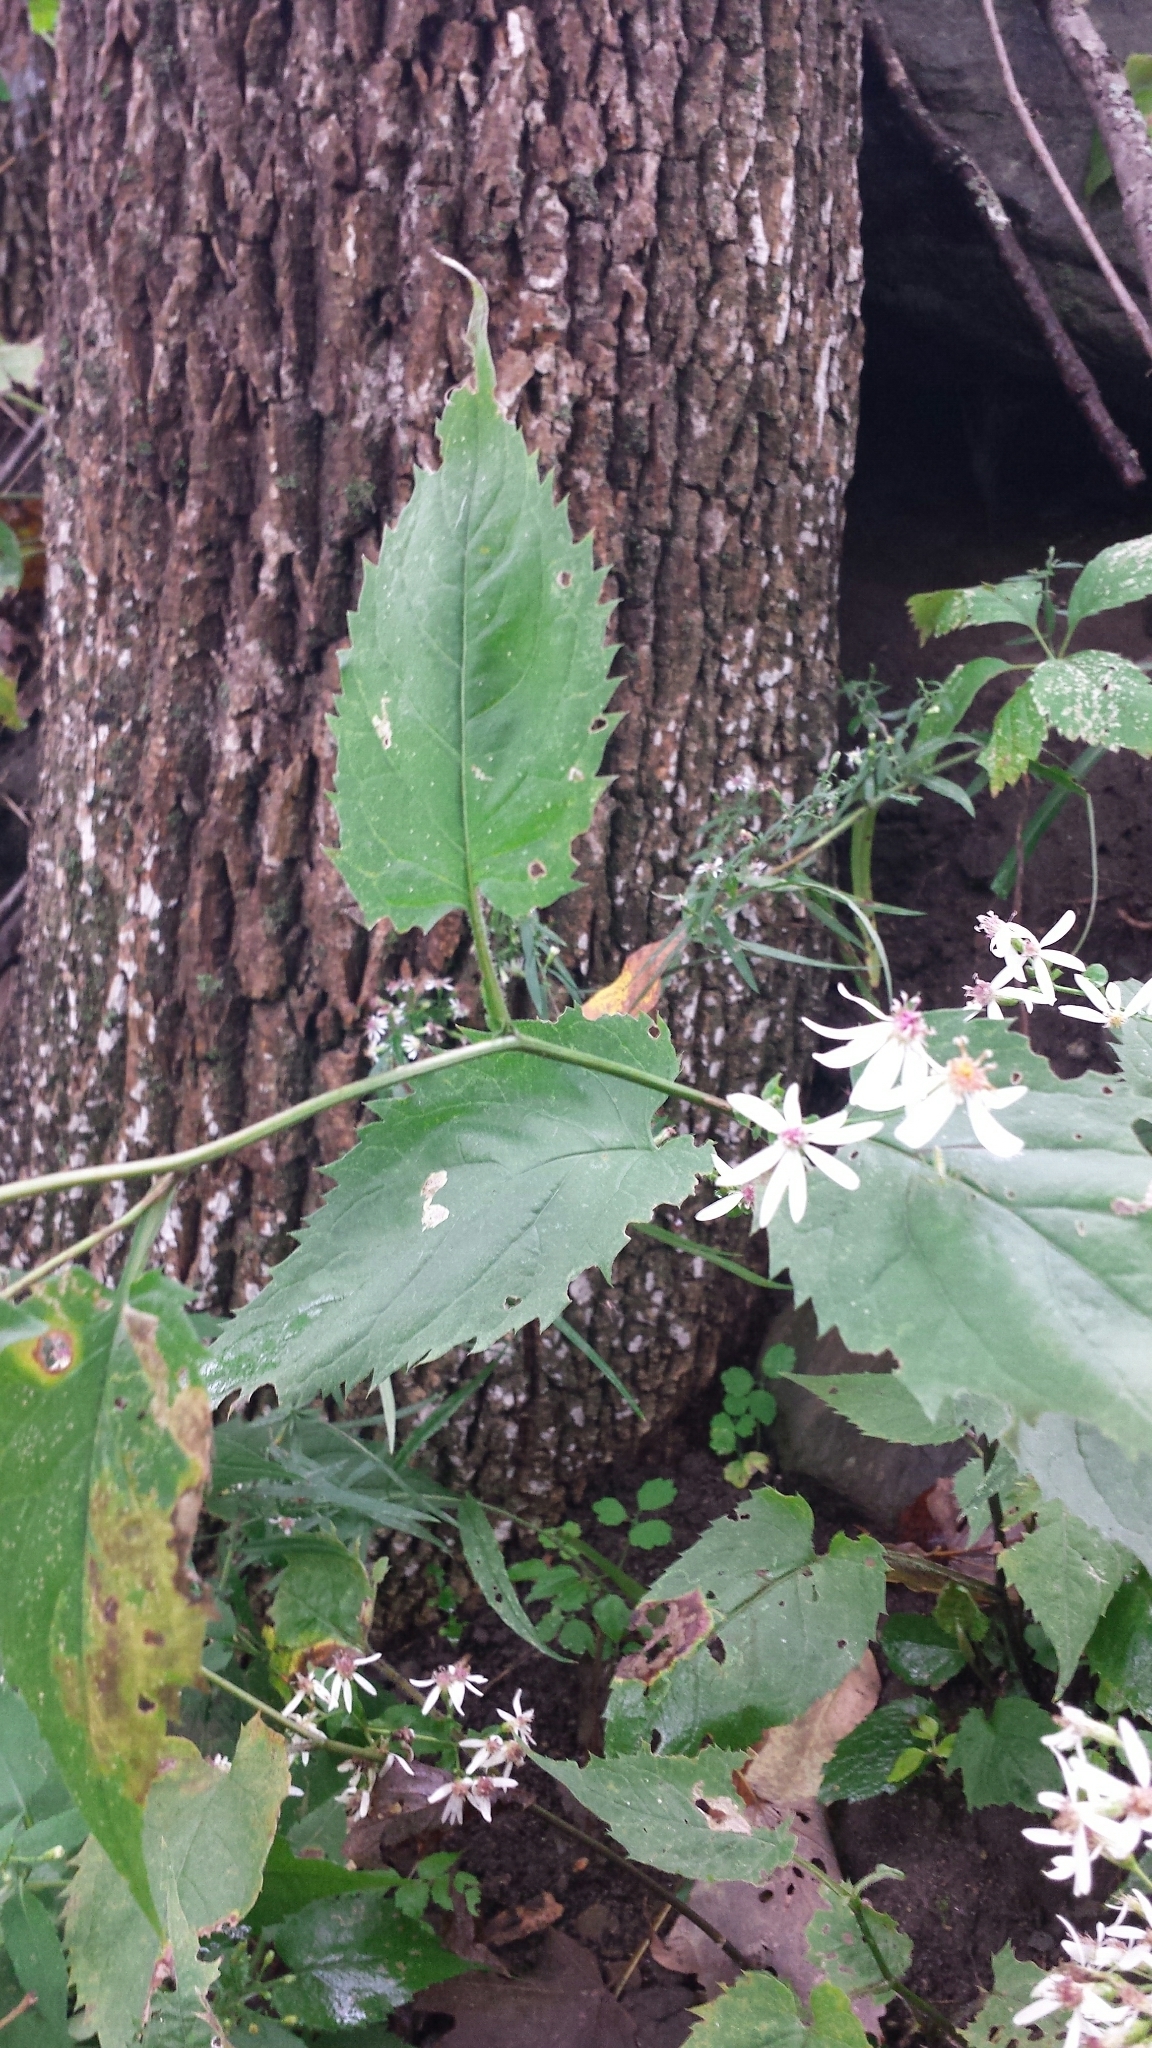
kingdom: Plantae
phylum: Tracheophyta
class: Magnoliopsida
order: Asterales
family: Asteraceae
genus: Eurybia
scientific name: Eurybia divaricata
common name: White wood aster
